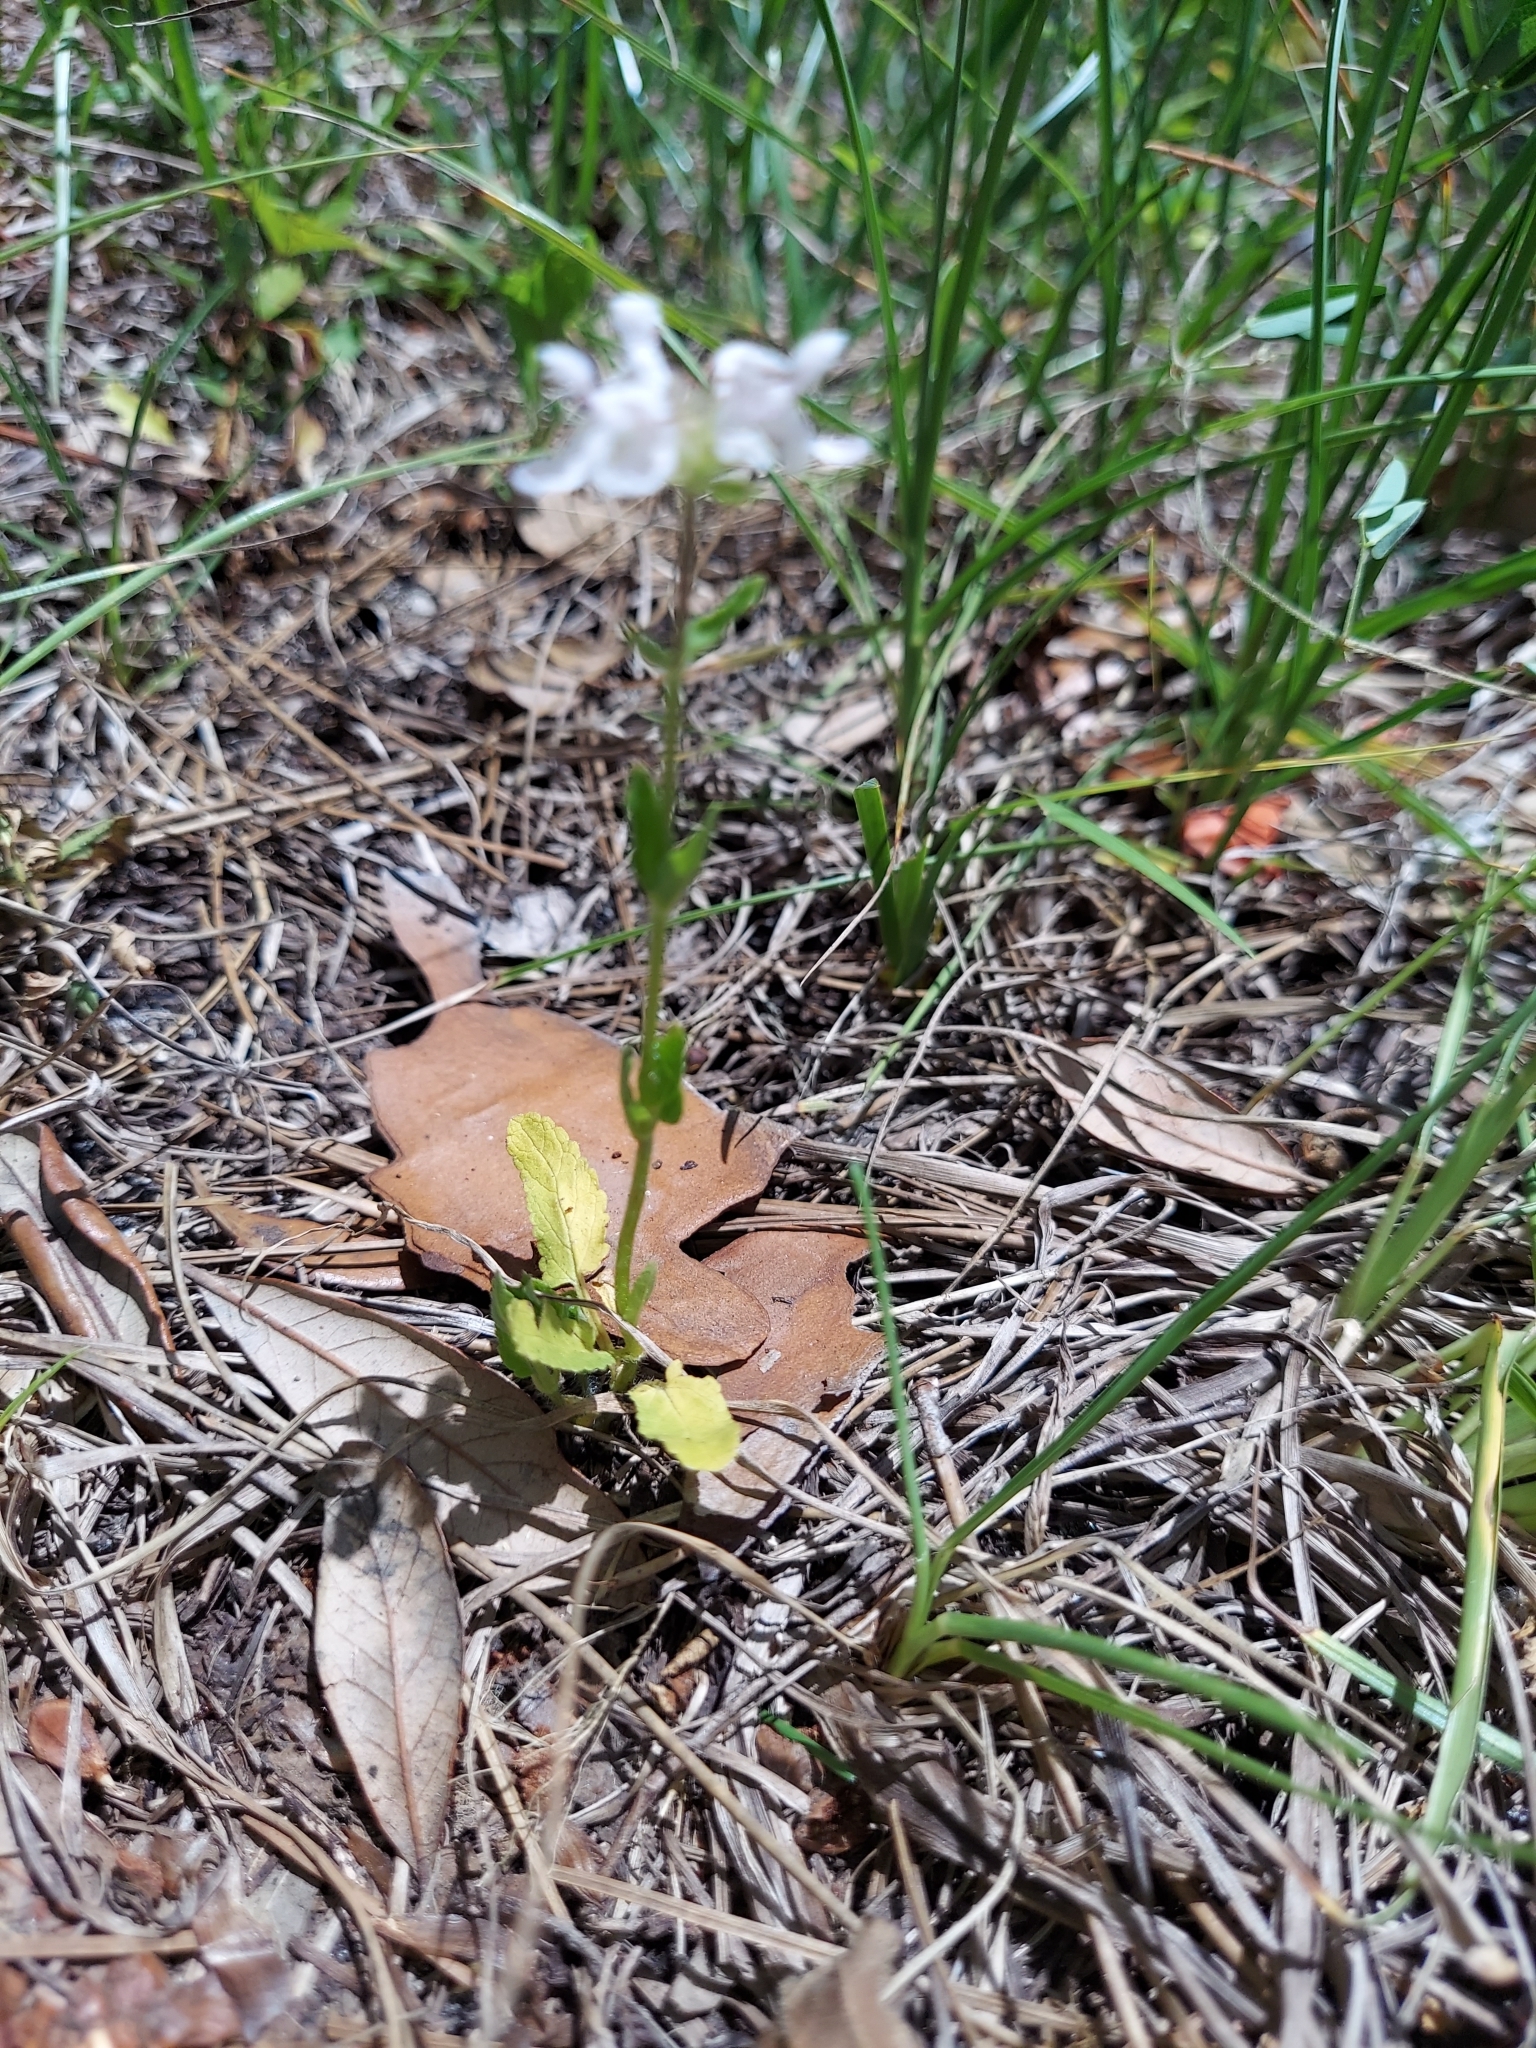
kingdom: Plantae
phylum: Tracheophyta
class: Magnoliopsida
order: Lamiales
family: Lamiaceae
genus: Stachys
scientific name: Stachys floridana
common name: Florida betony
